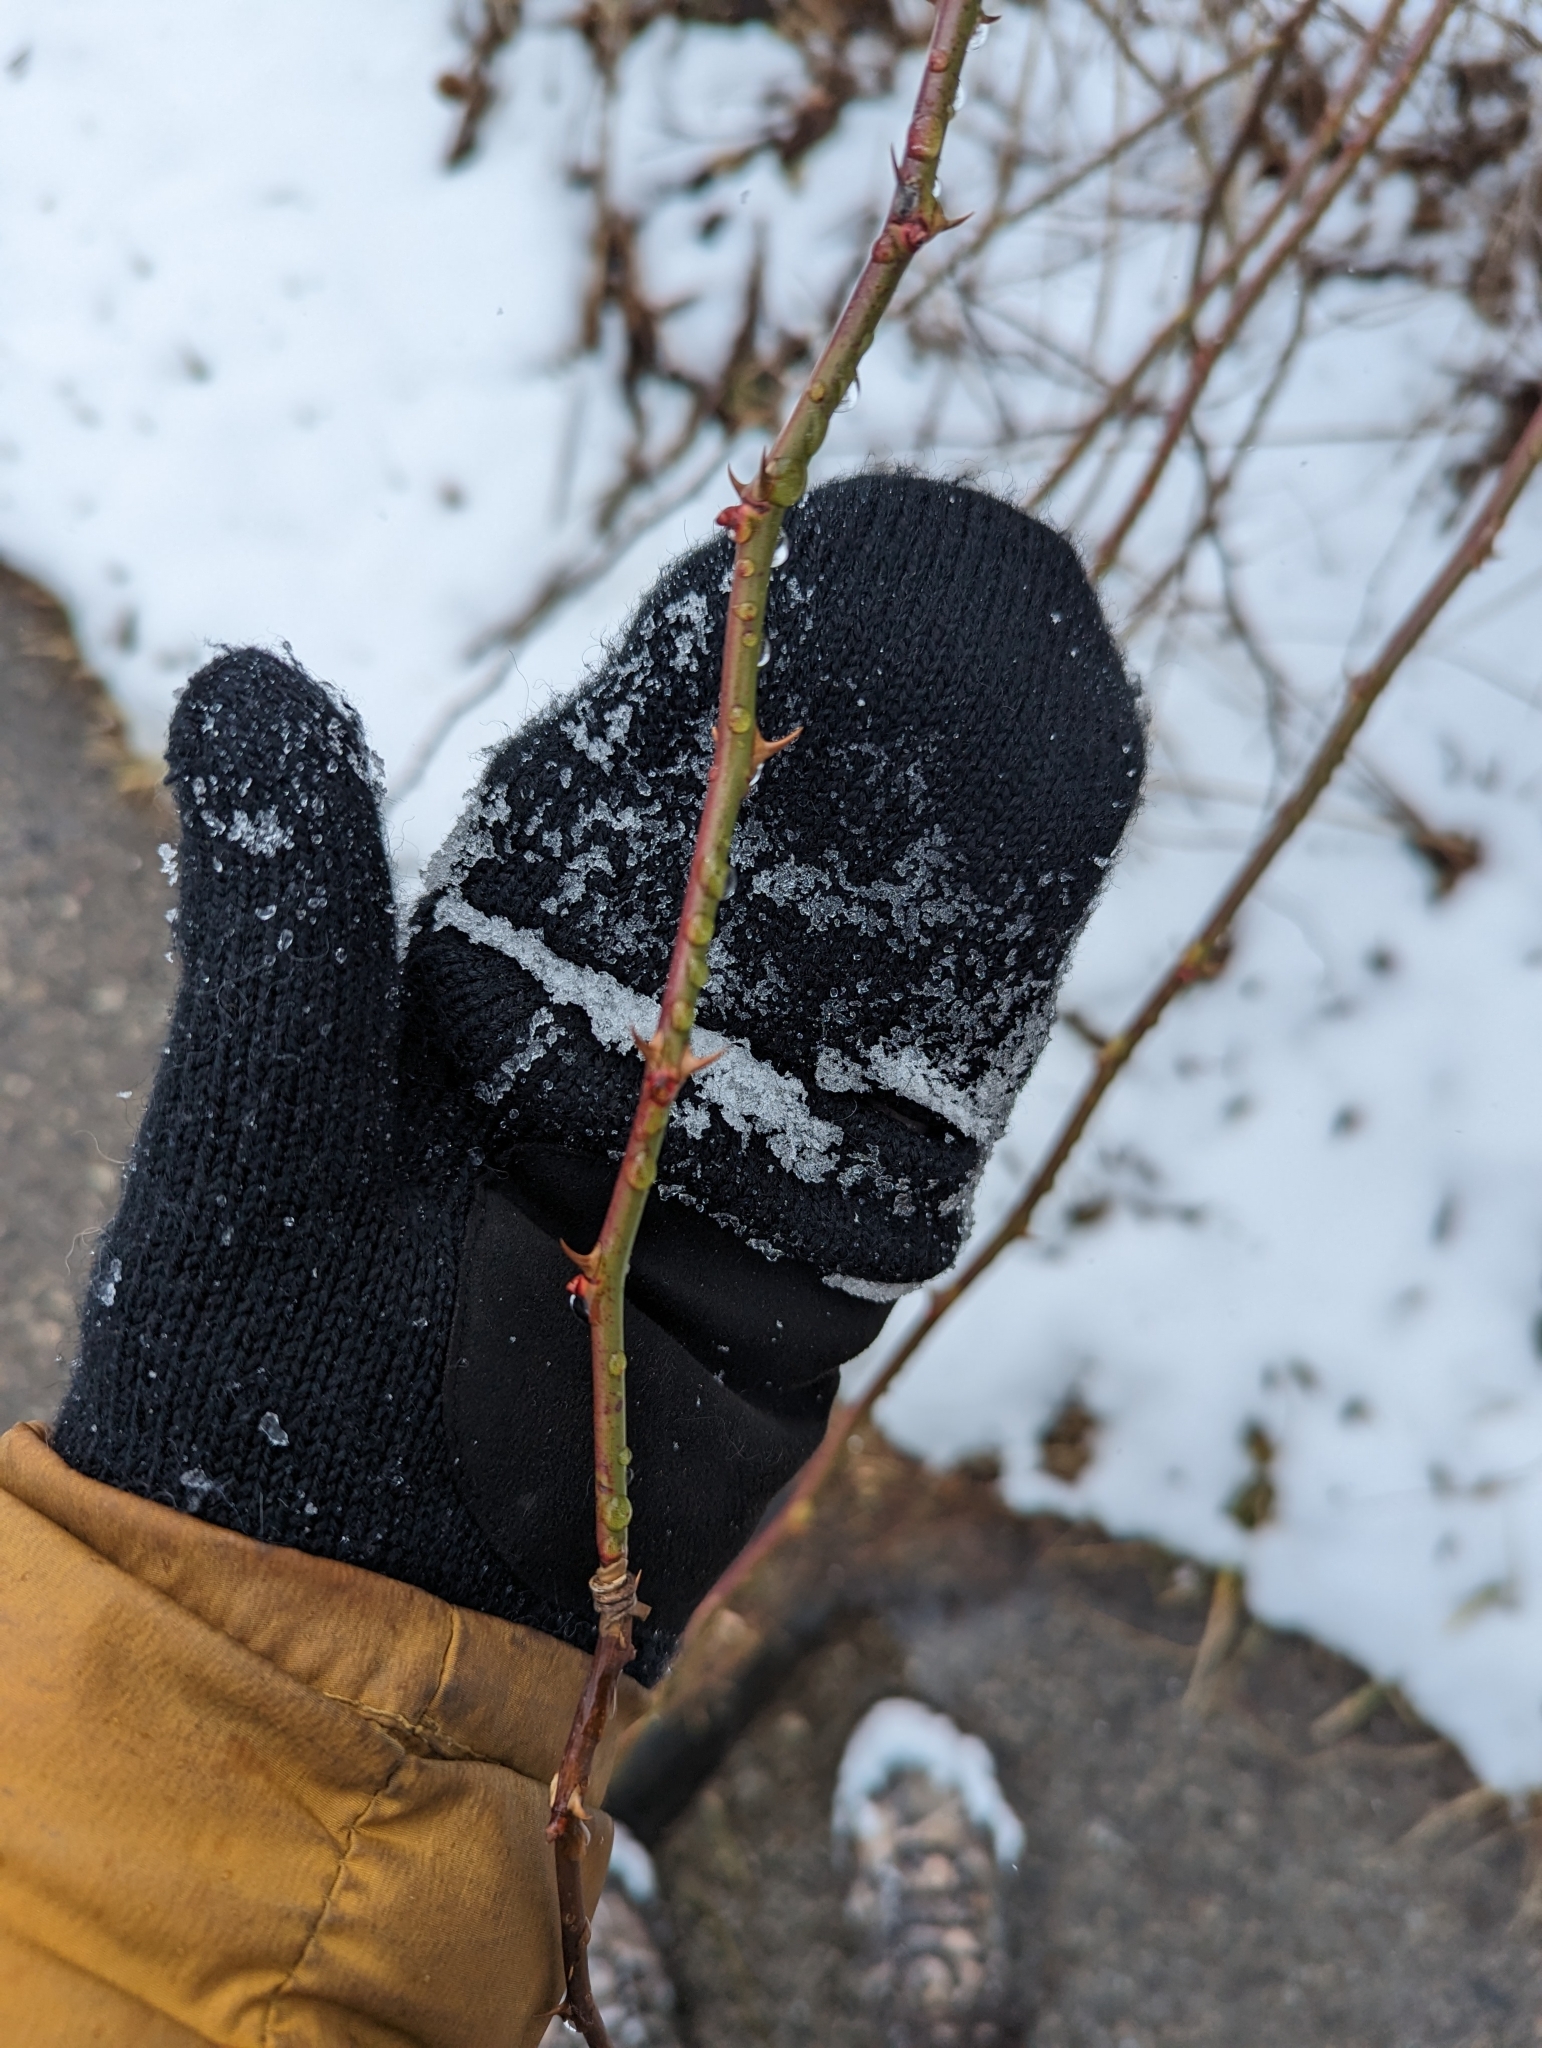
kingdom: Plantae
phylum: Tracheophyta
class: Magnoliopsida
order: Rosales
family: Rosaceae
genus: Rosa
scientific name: Rosa multiflora
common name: Multiflora rose
